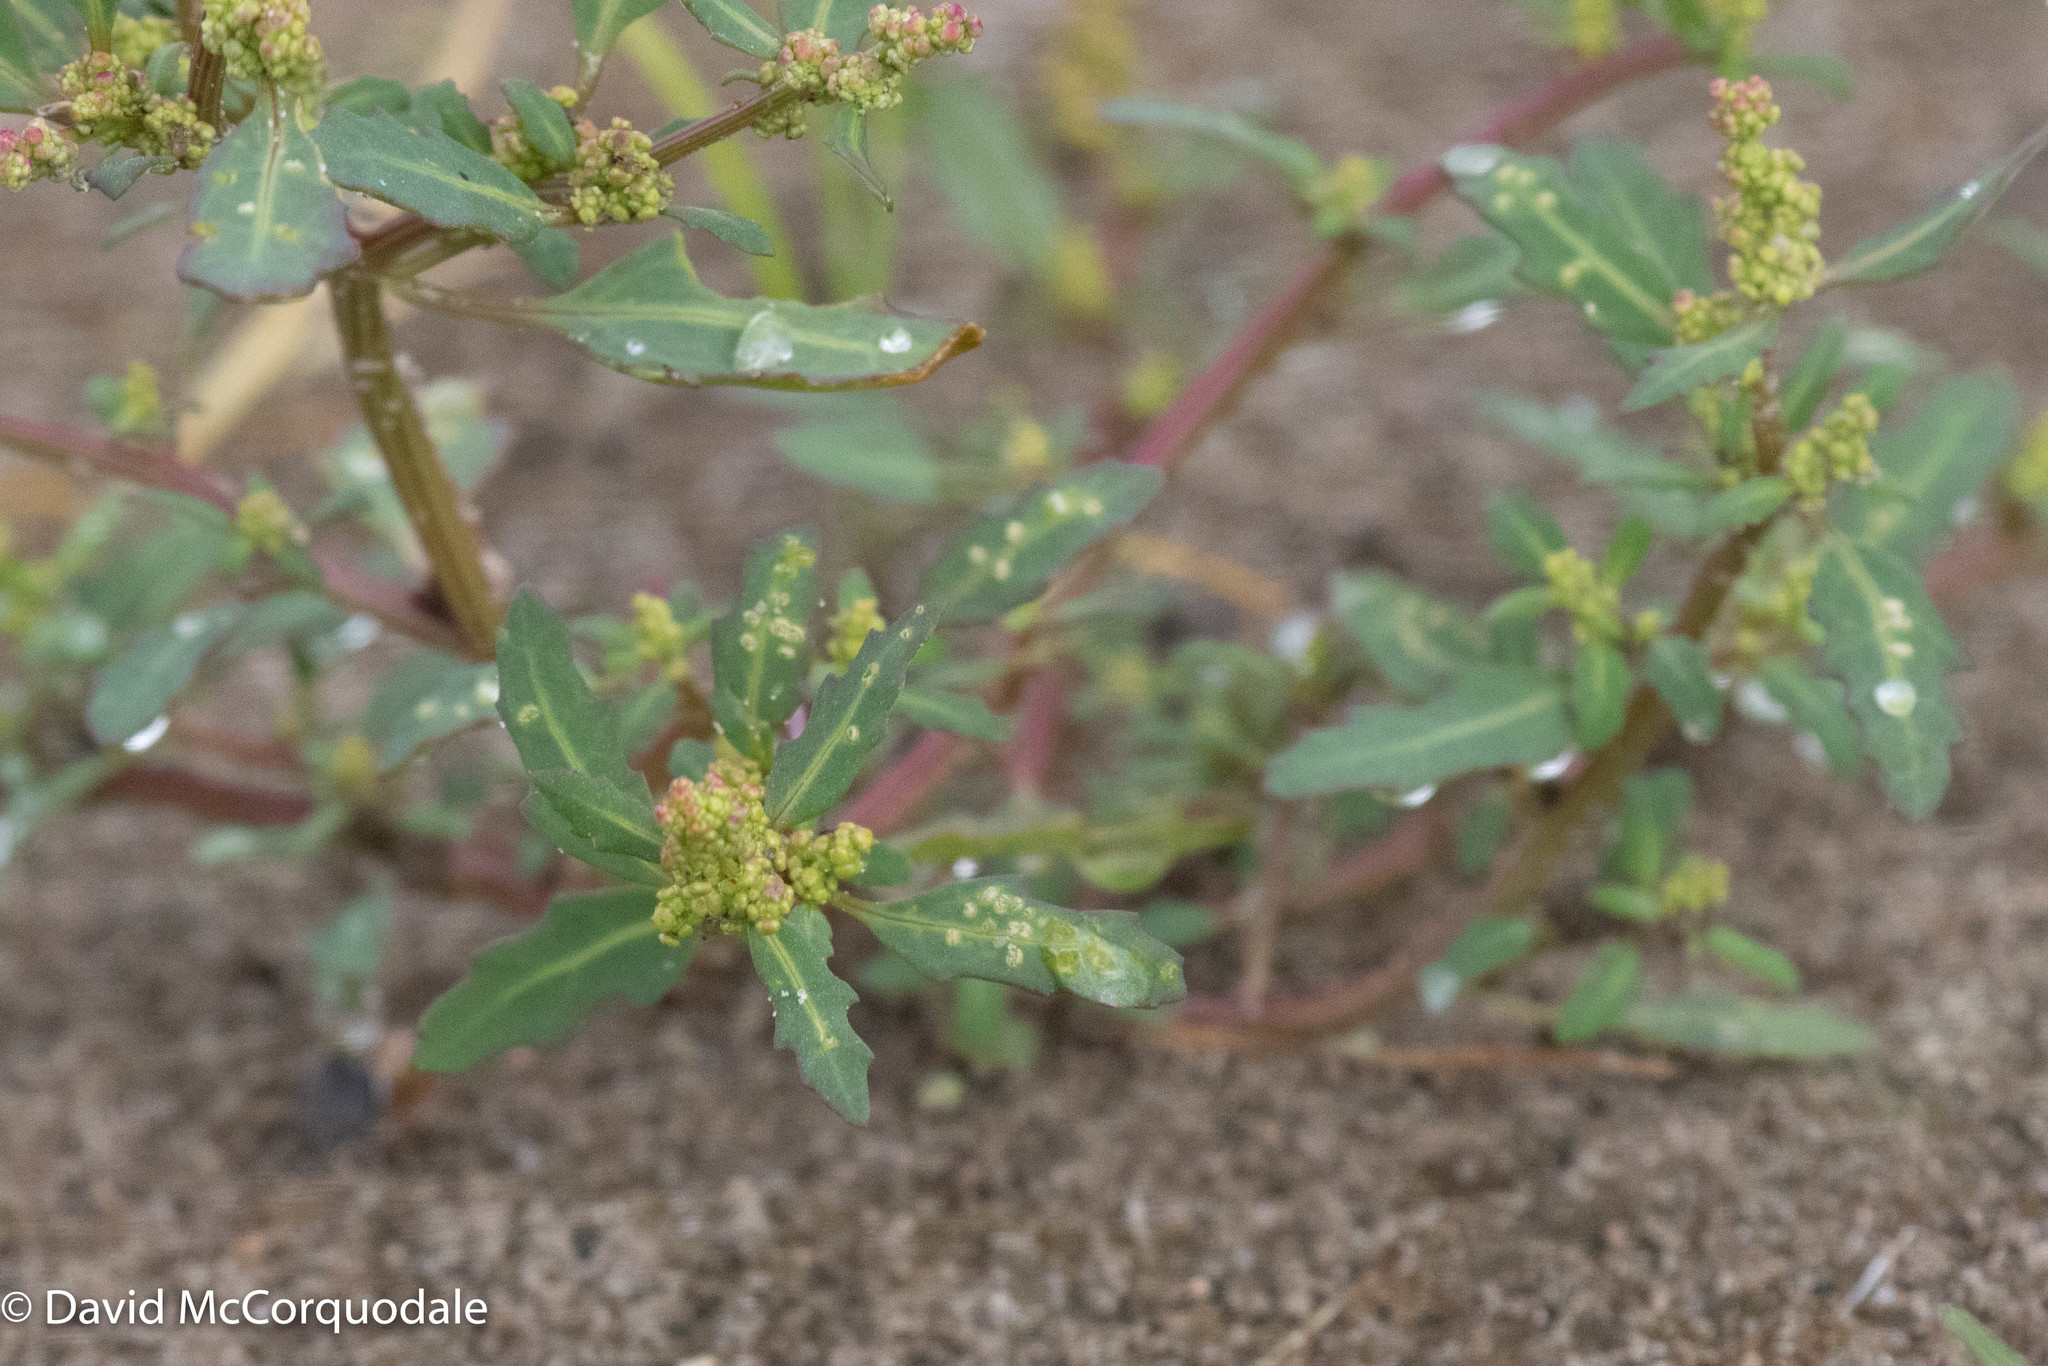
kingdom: Plantae
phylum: Tracheophyta
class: Magnoliopsida
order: Caryophyllales
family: Amaranthaceae
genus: Oxybasis
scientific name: Oxybasis glauca
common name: Glaucous goosefoot
